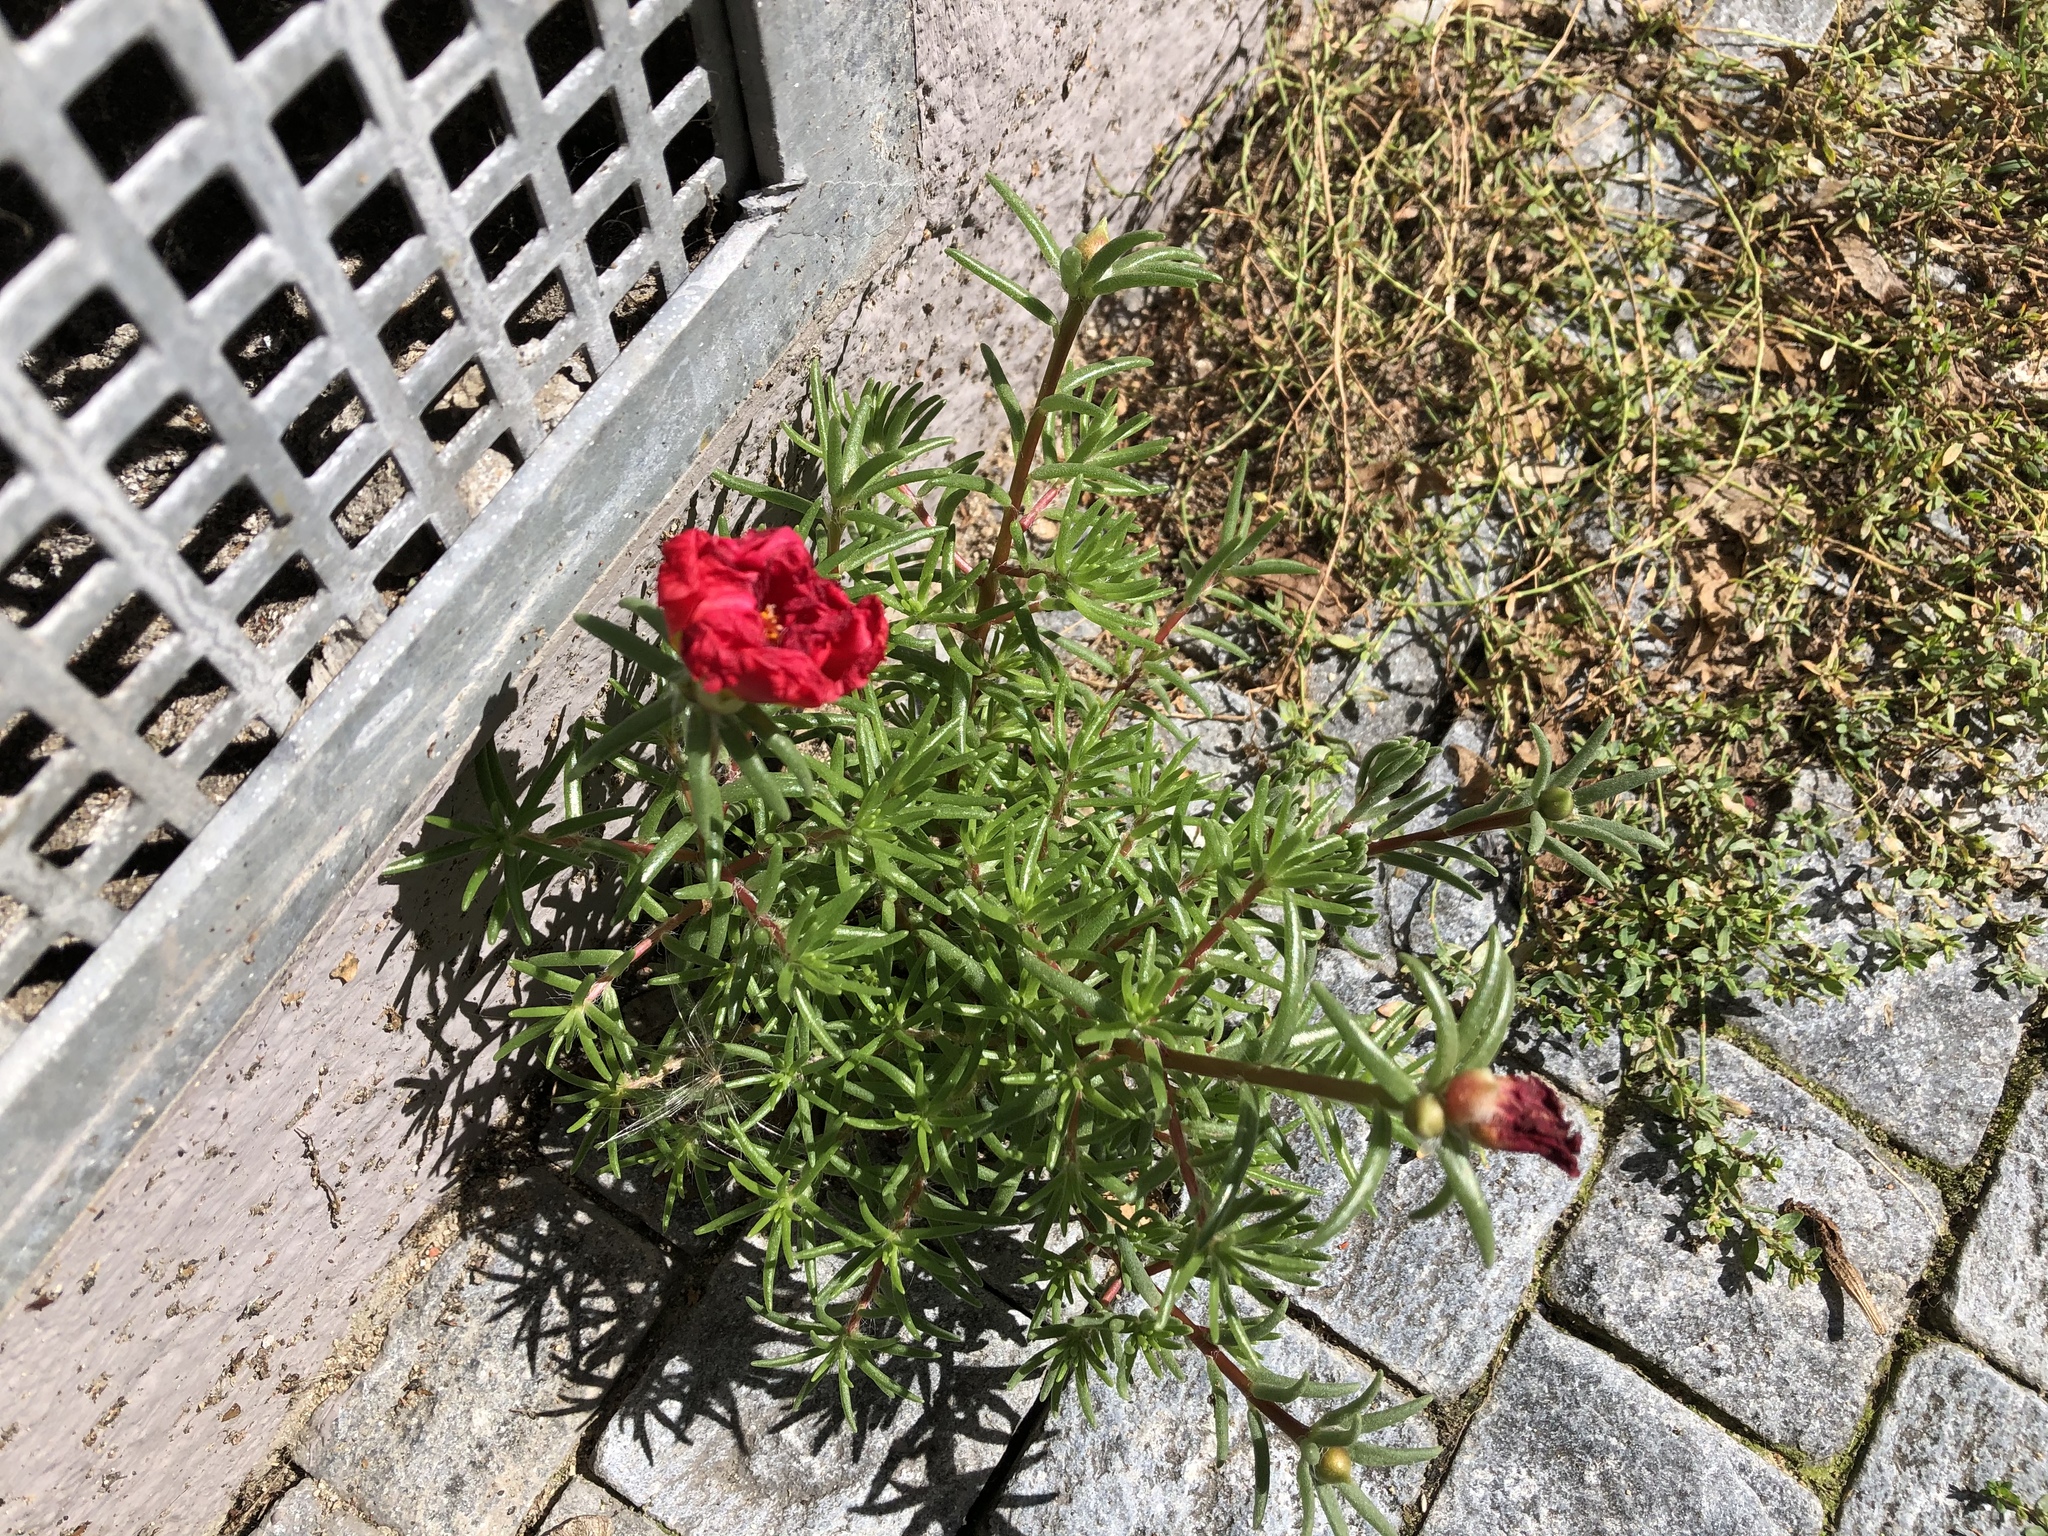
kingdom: Plantae
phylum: Tracheophyta
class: Magnoliopsida
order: Caryophyllales
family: Portulacaceae
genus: Portulaca
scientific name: Portulaca grandiflora
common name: Moss-rose
